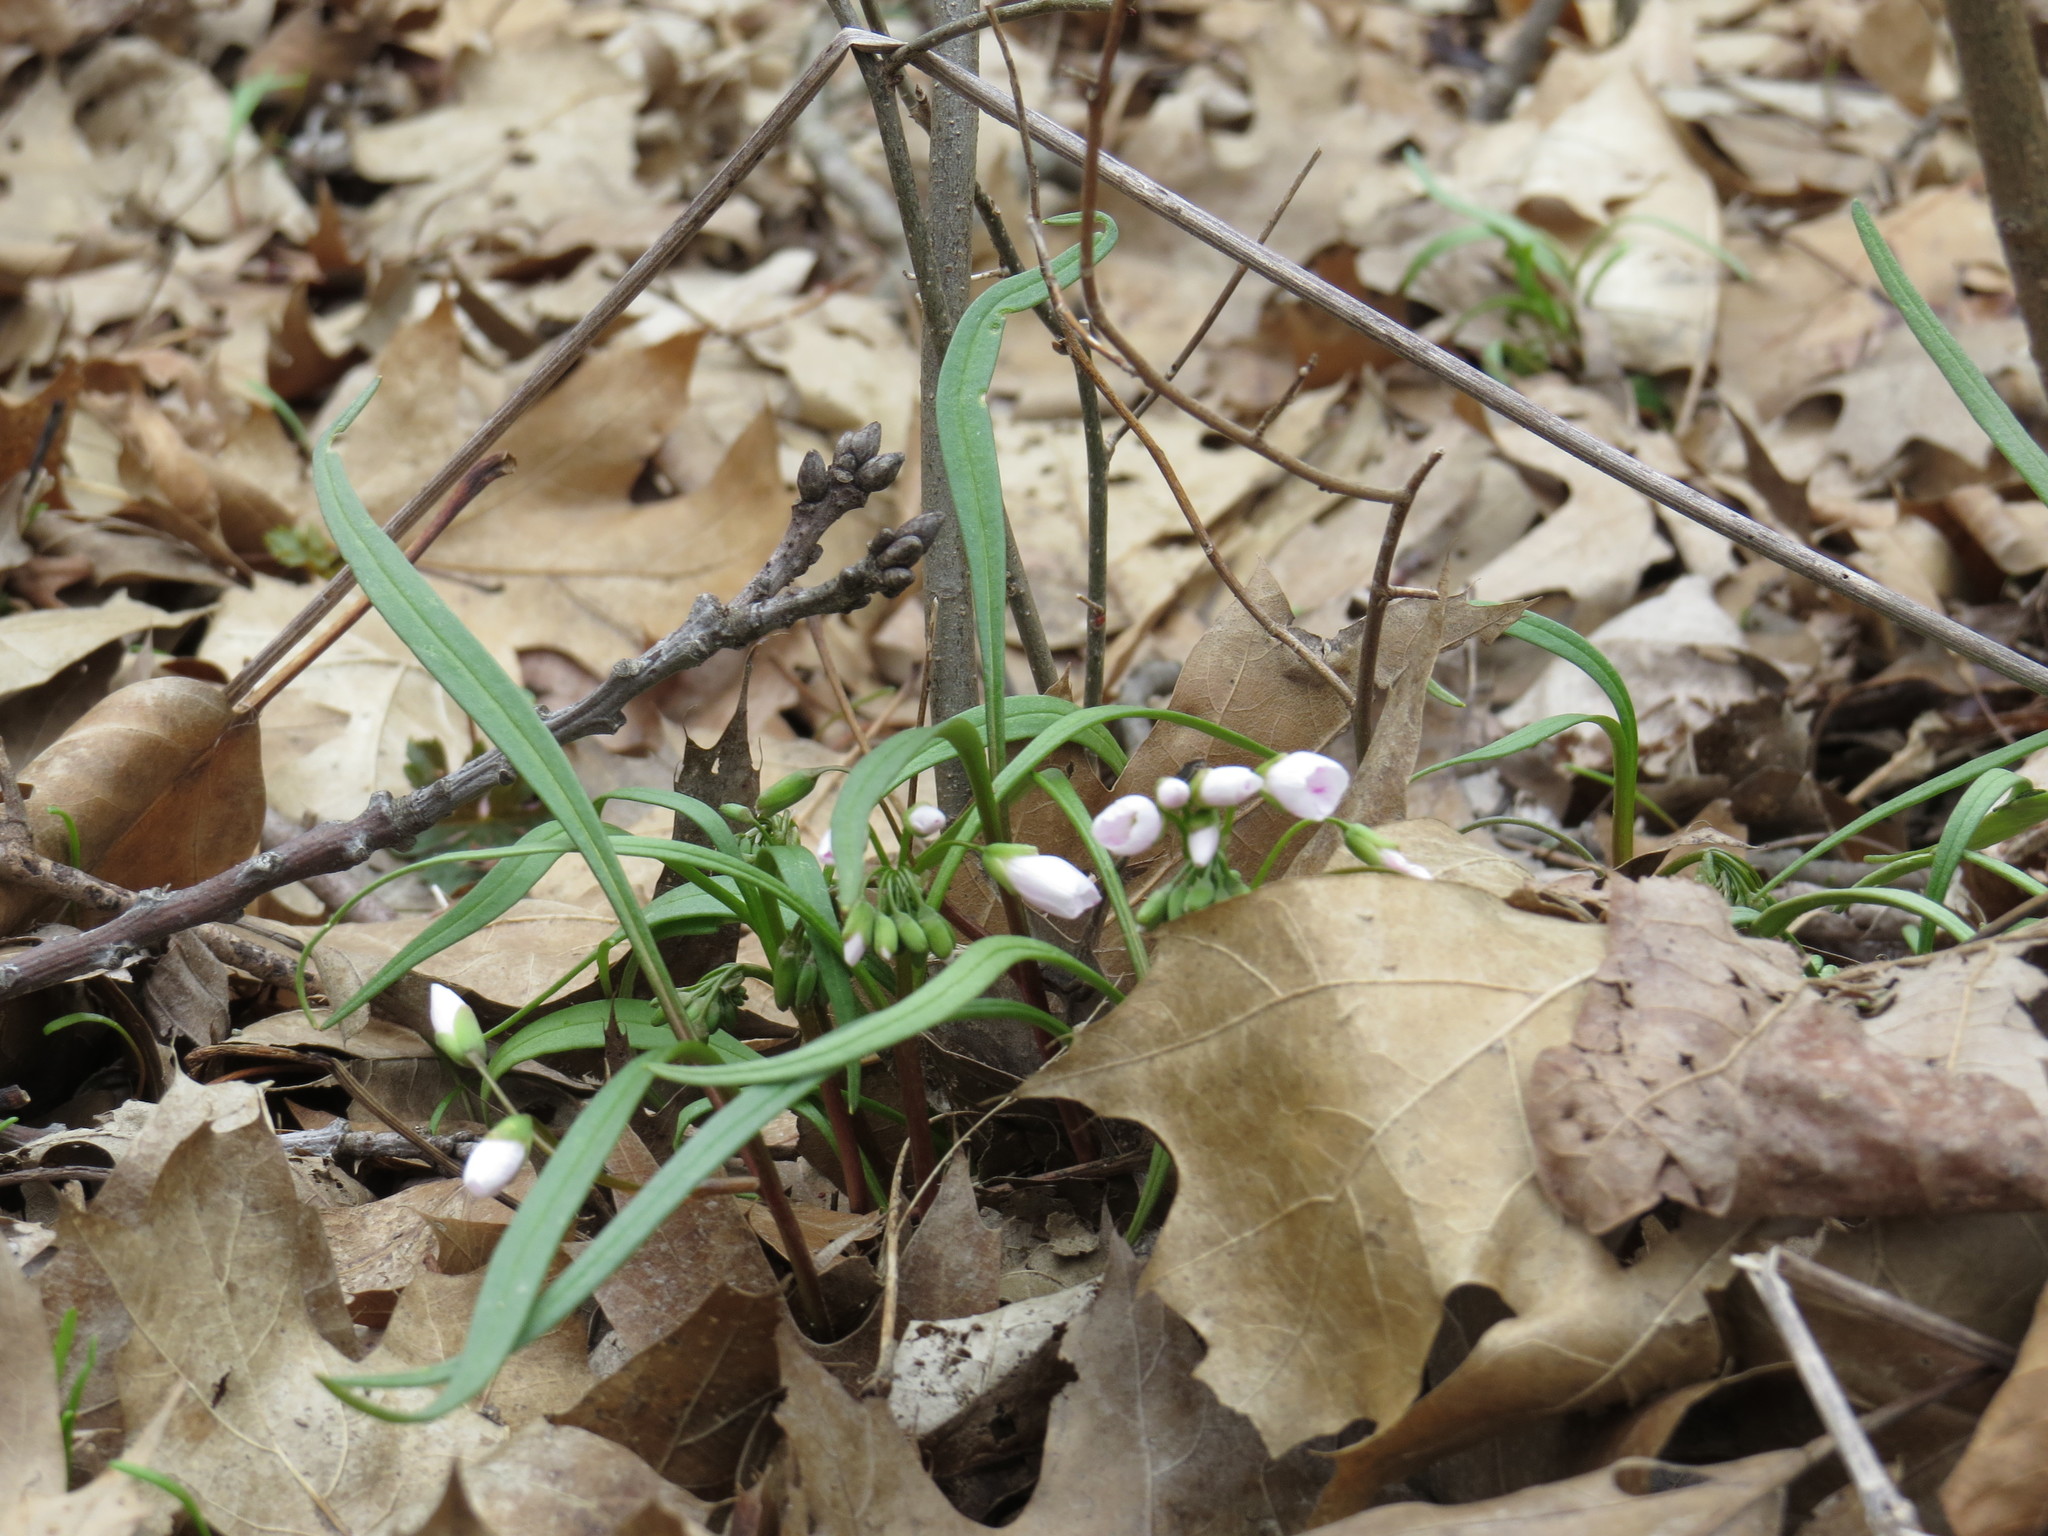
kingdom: Plantae
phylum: Tracheophyta
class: Magnoliopsida
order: Caryophyllales
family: Montiaceae
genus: Claytonia
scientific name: Claytonia virginica
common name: Virginia springbeauty
